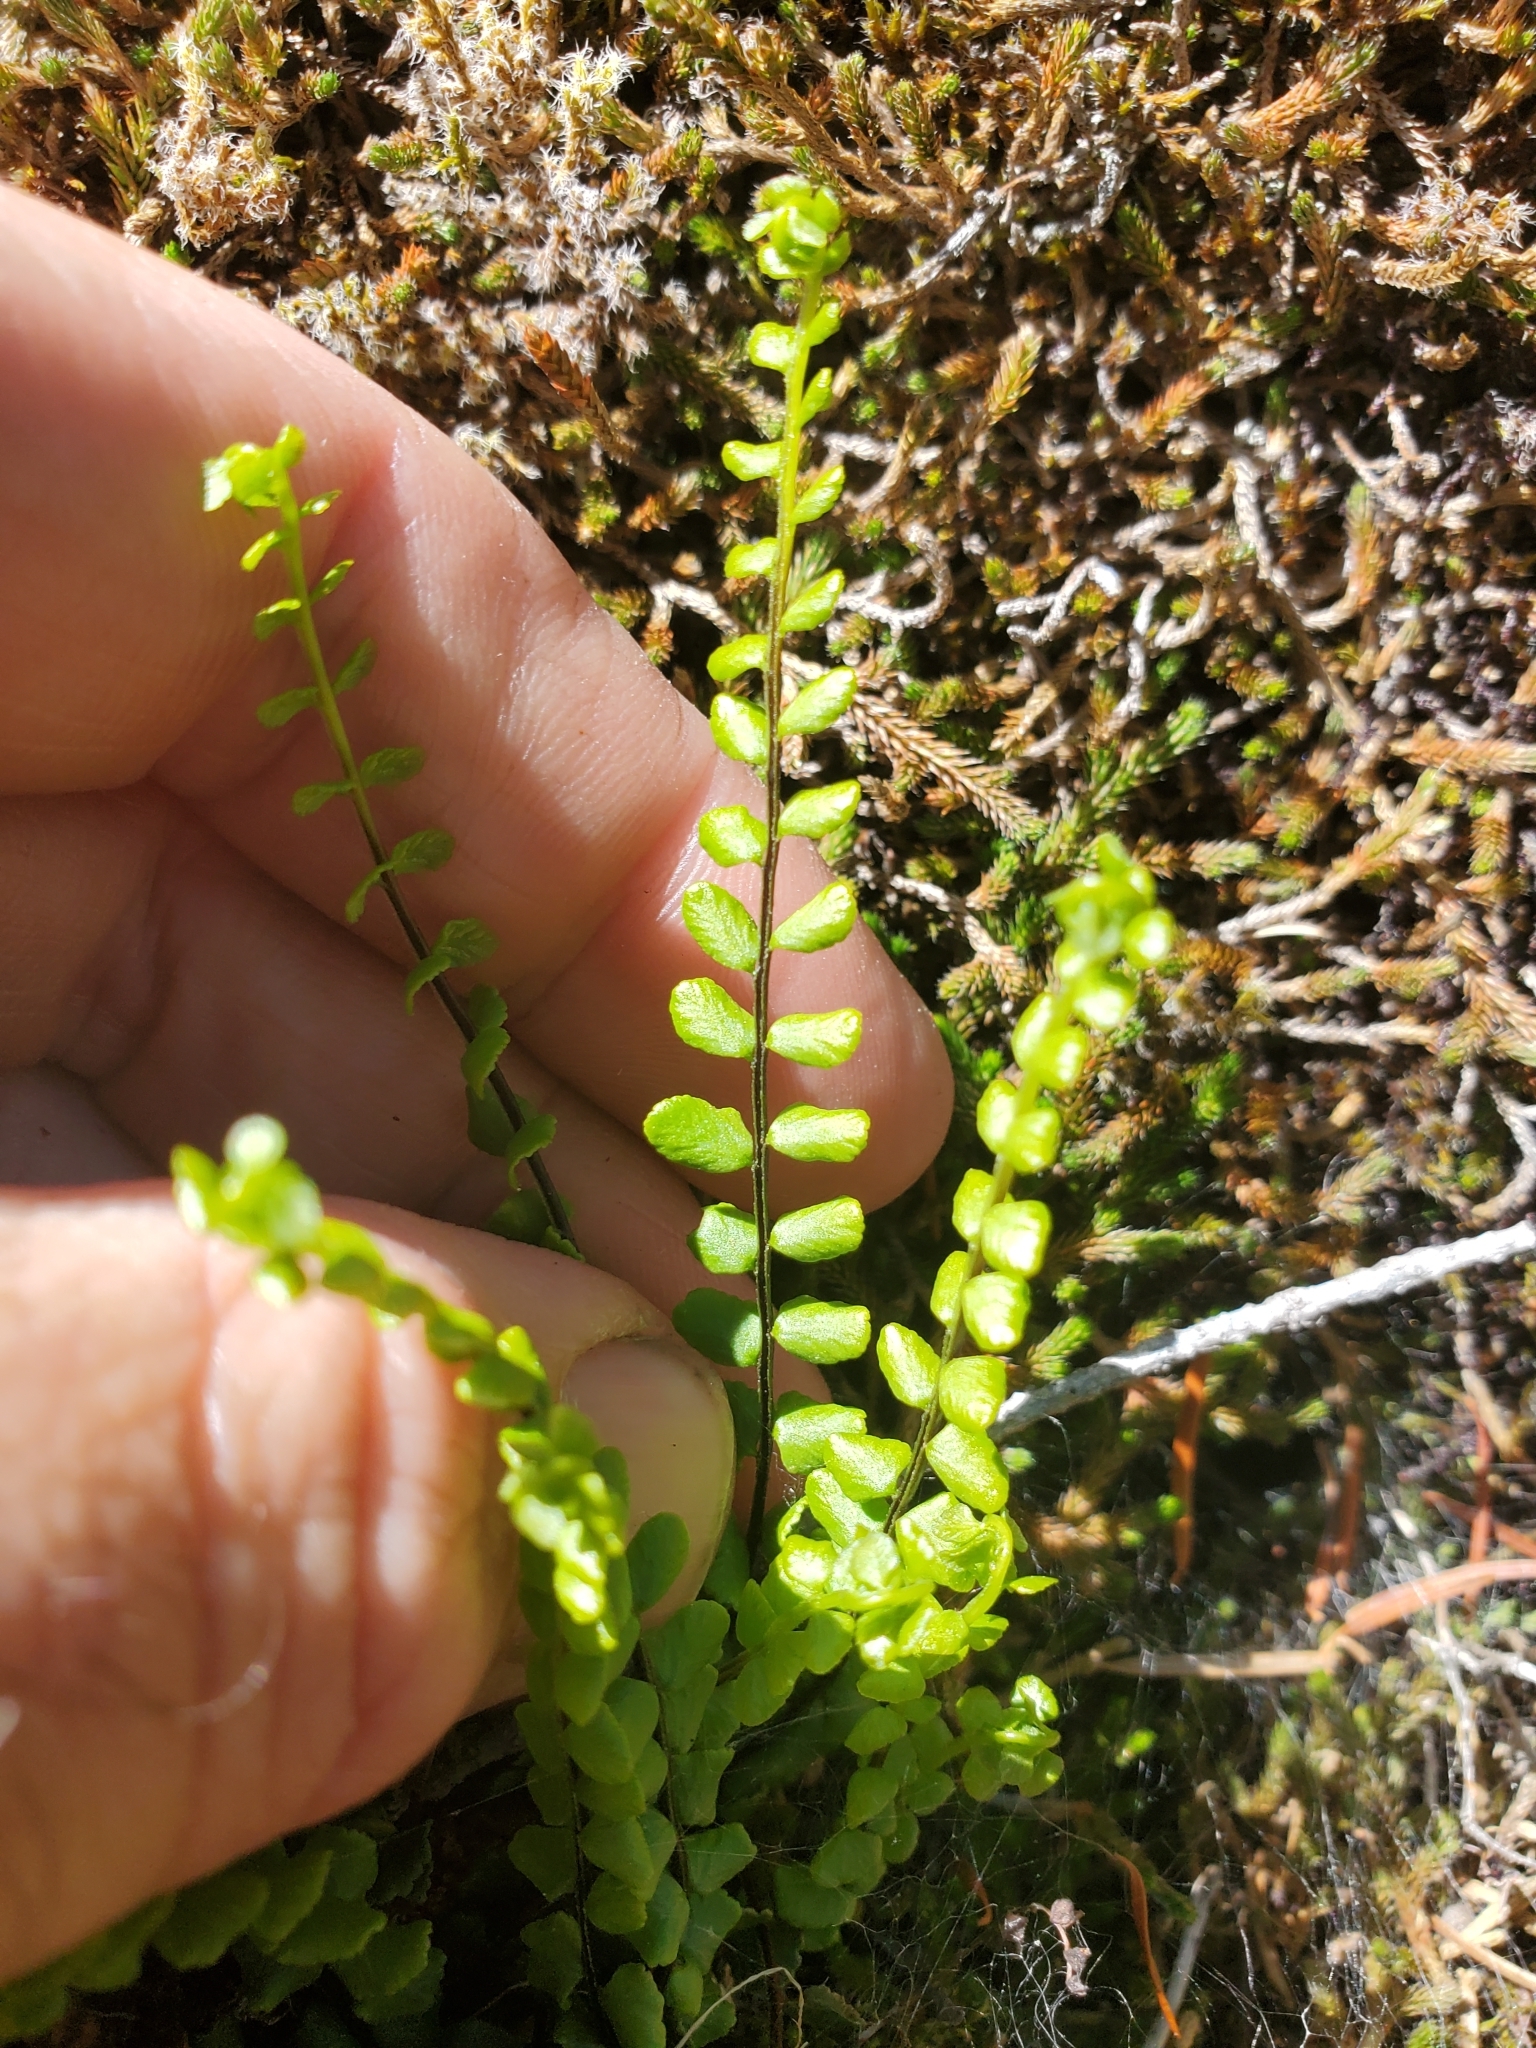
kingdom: Plantae
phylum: Tracheophyta
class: Polypodiopsida
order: Polypodiales
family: Aspleniaceae
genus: Asplenium
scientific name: Asplenium trichomanes
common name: Maidenhair spleenwort
